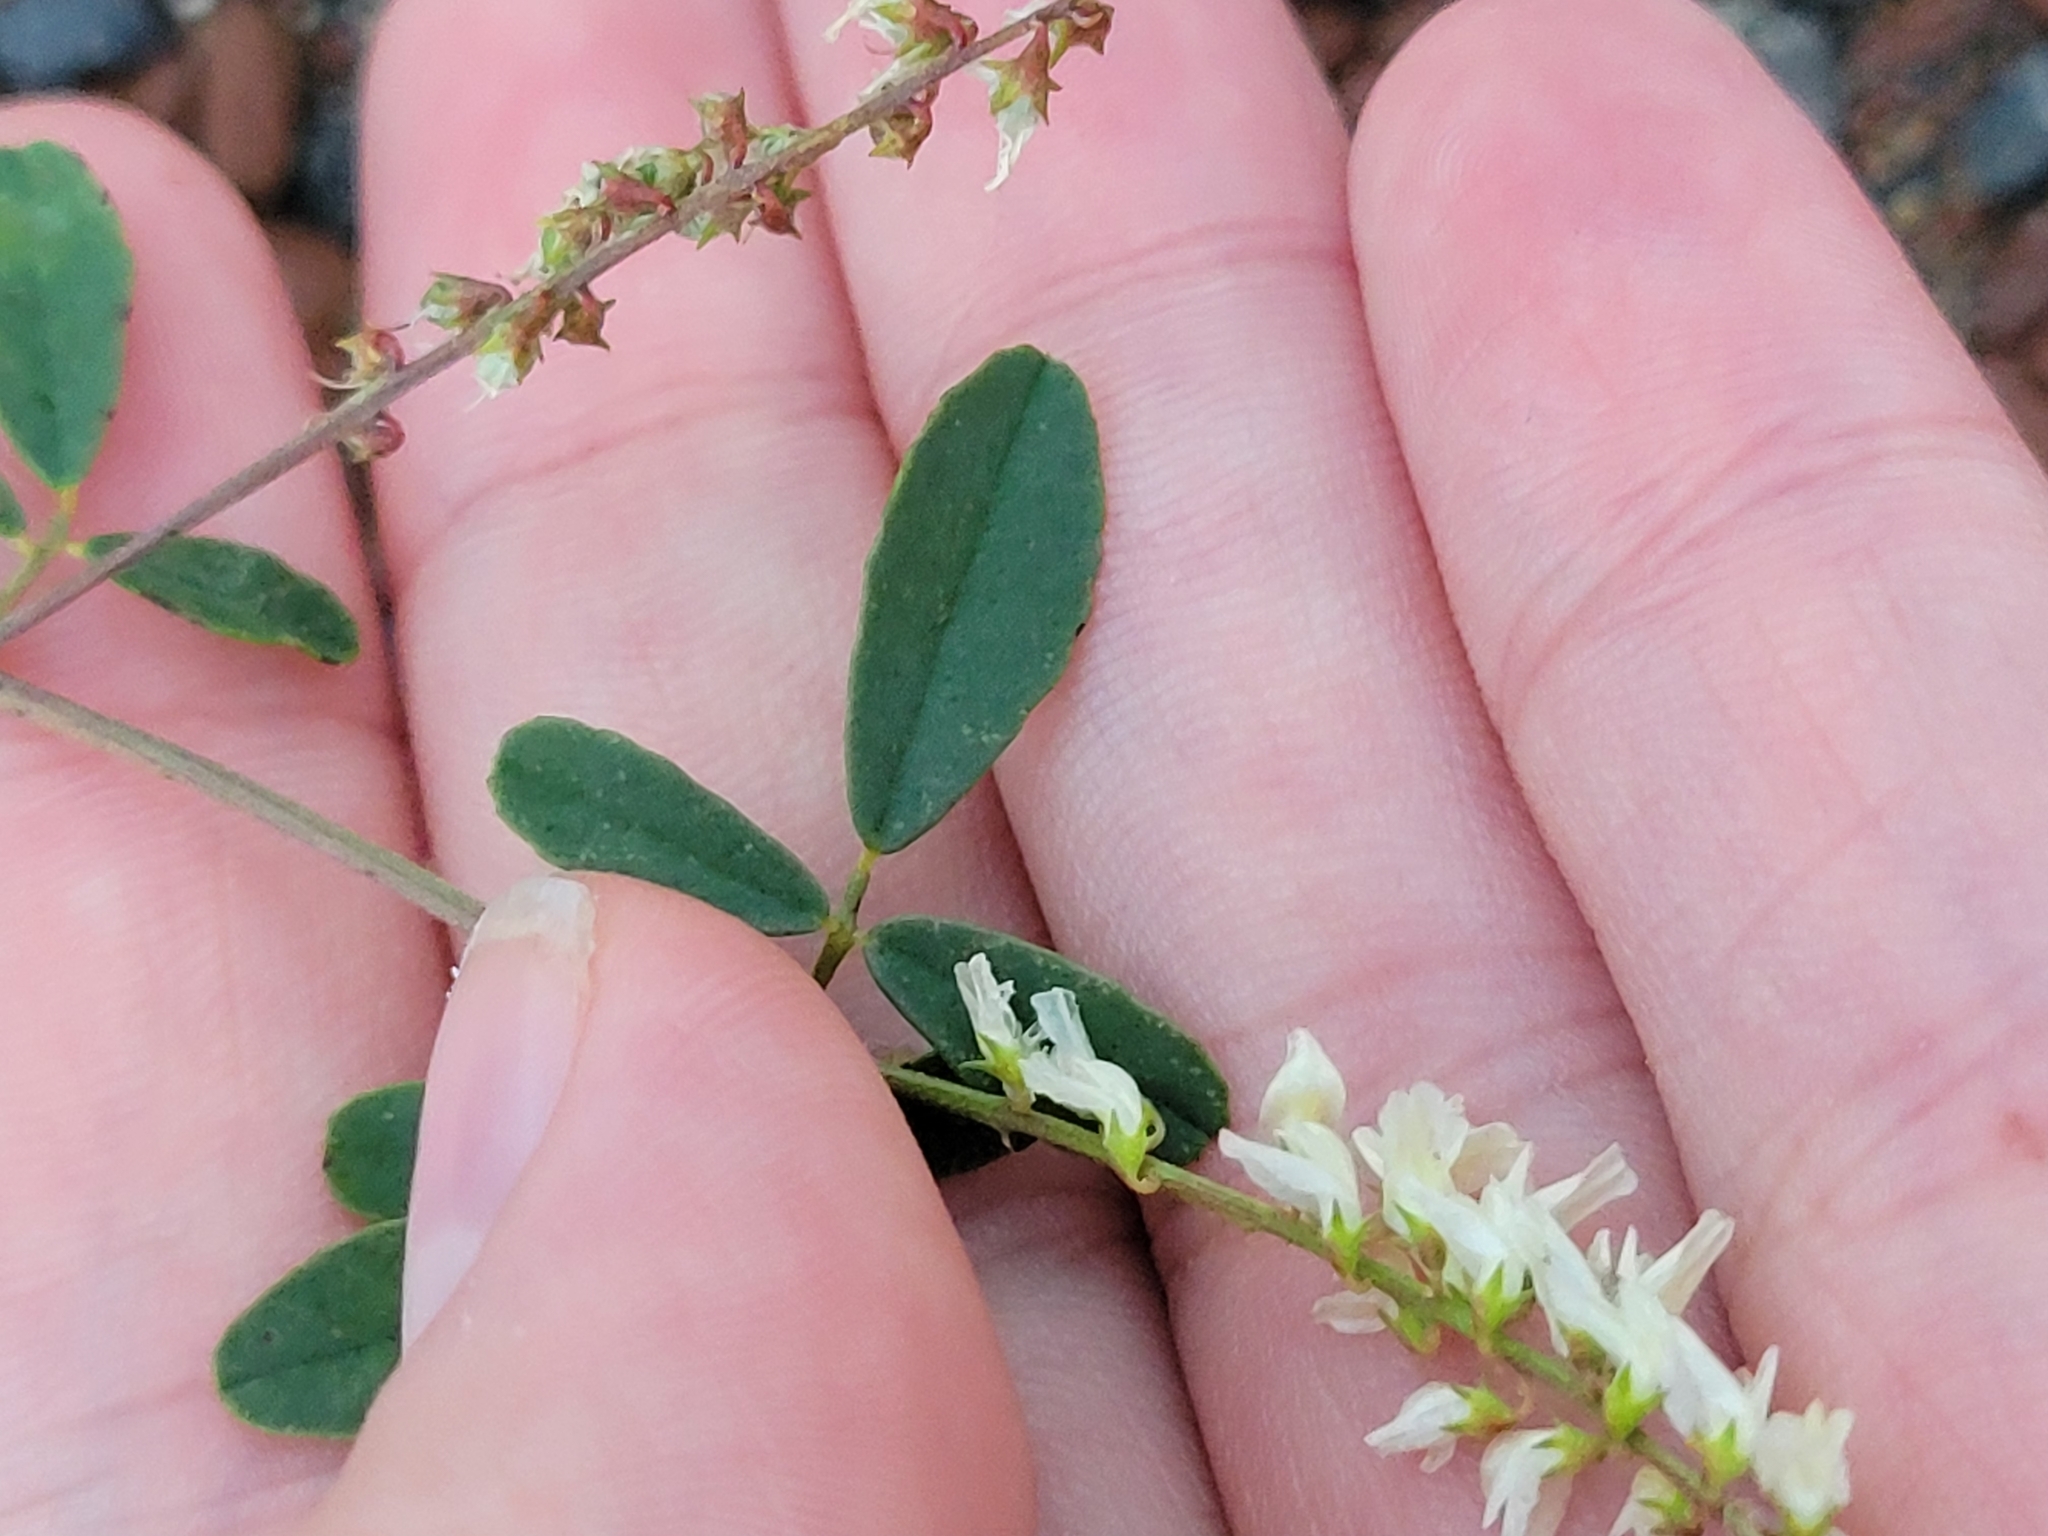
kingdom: Plantae
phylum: Tracheophyta
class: Magnoliopsida
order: Fabales
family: Fabaceae
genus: Melilotus
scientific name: Melilotus albus
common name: White melilot
